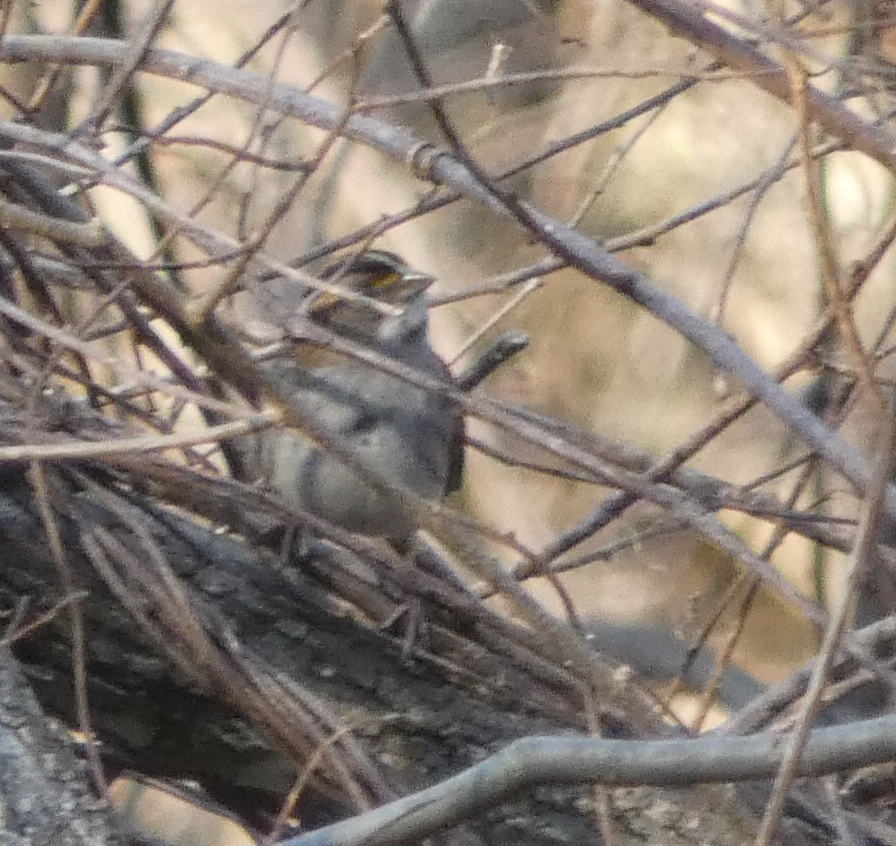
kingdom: Animalia
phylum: Chordata
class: Aves
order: Passeriformes
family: Passerellidae
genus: Zonotrichia
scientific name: Zonotrichia albicollis
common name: White-throated sparrow
